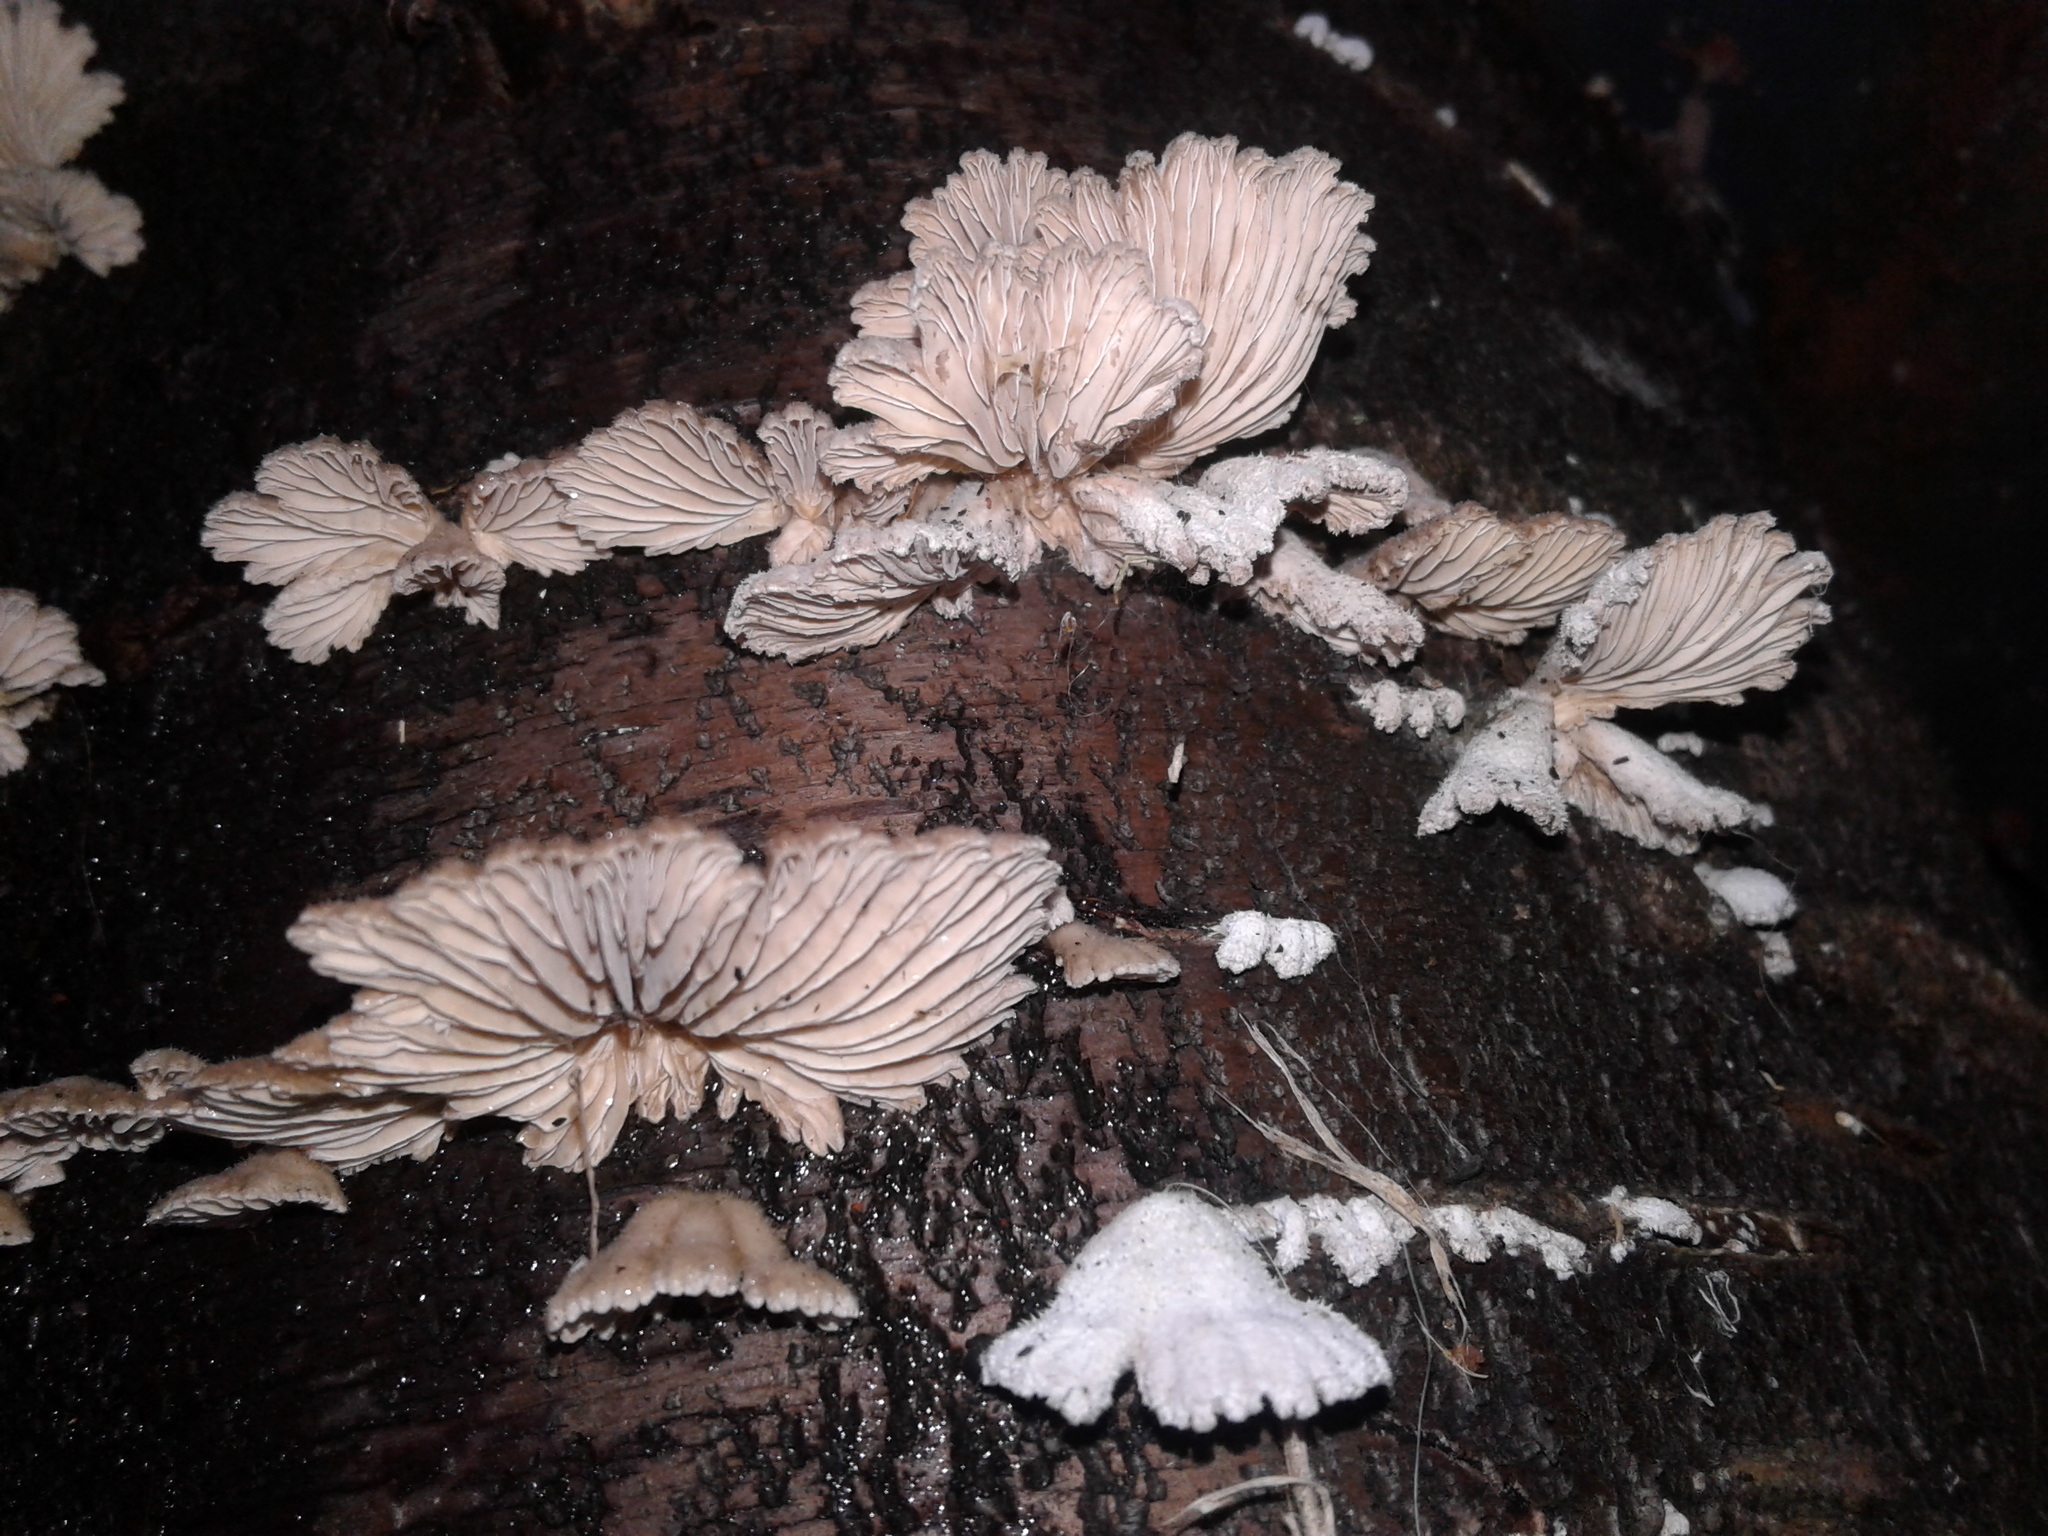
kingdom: Fungi
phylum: Basidiomycota
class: Agaricomycetes
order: Agaricales
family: Schizophyllaceae
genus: Schizophyllum
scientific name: Schizophyllum commune
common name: Common porecrust
